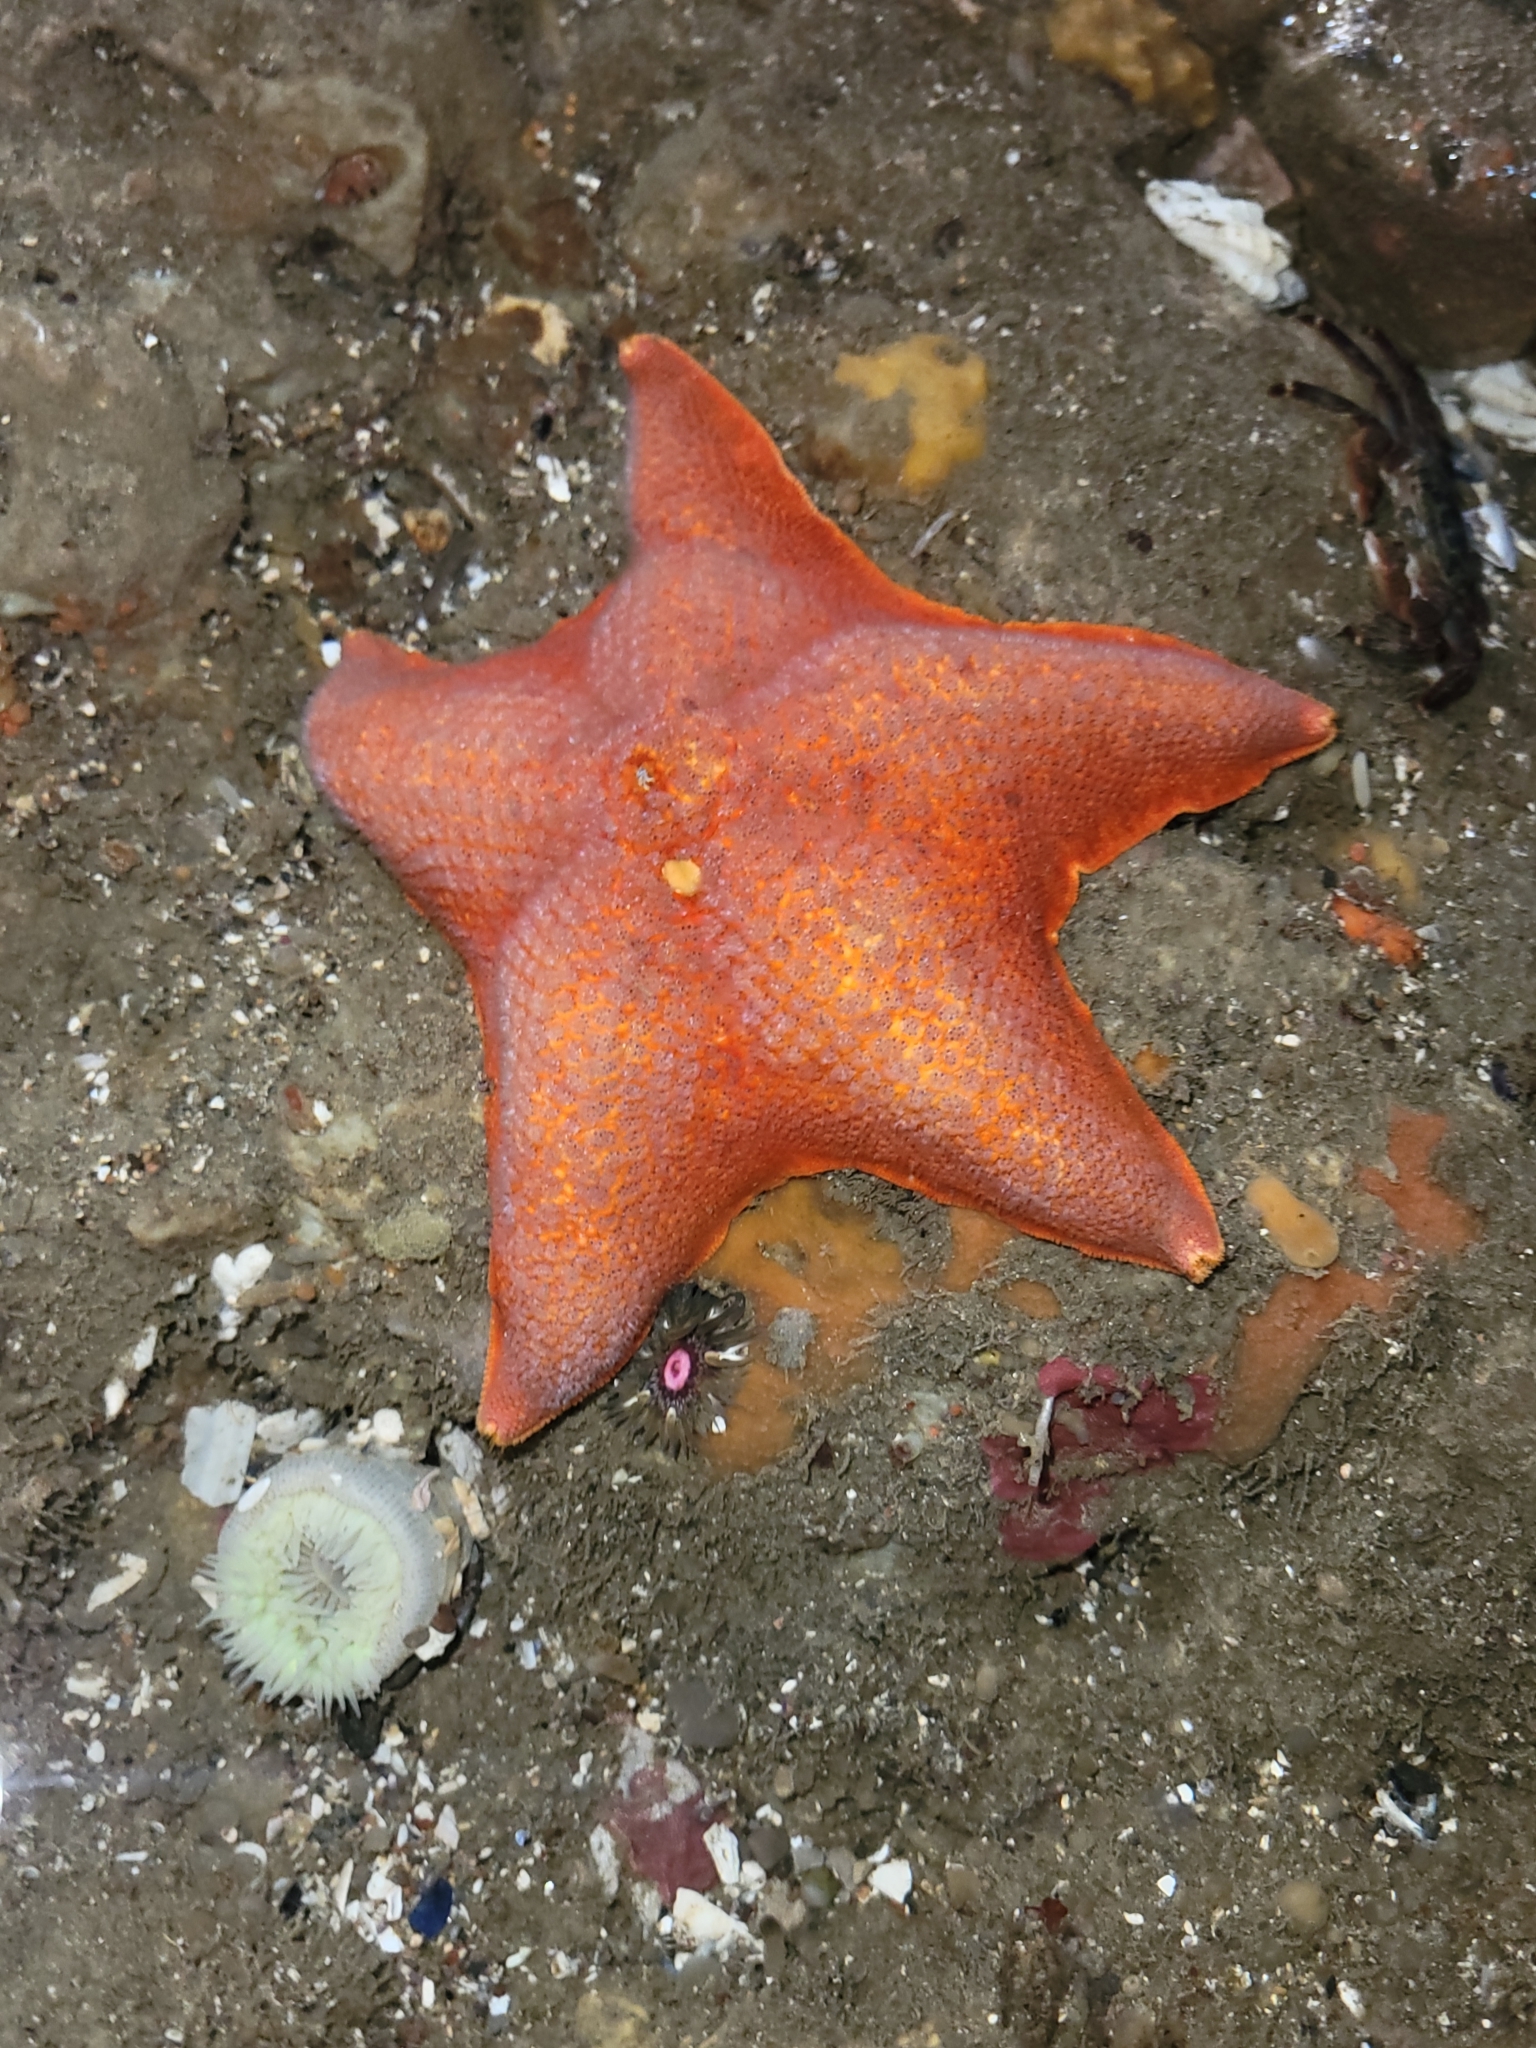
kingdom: Animalia
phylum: Echinodermata
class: Asteroidea
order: Valvatida
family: Asterinidae
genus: Patiria
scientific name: Patiria miniata
